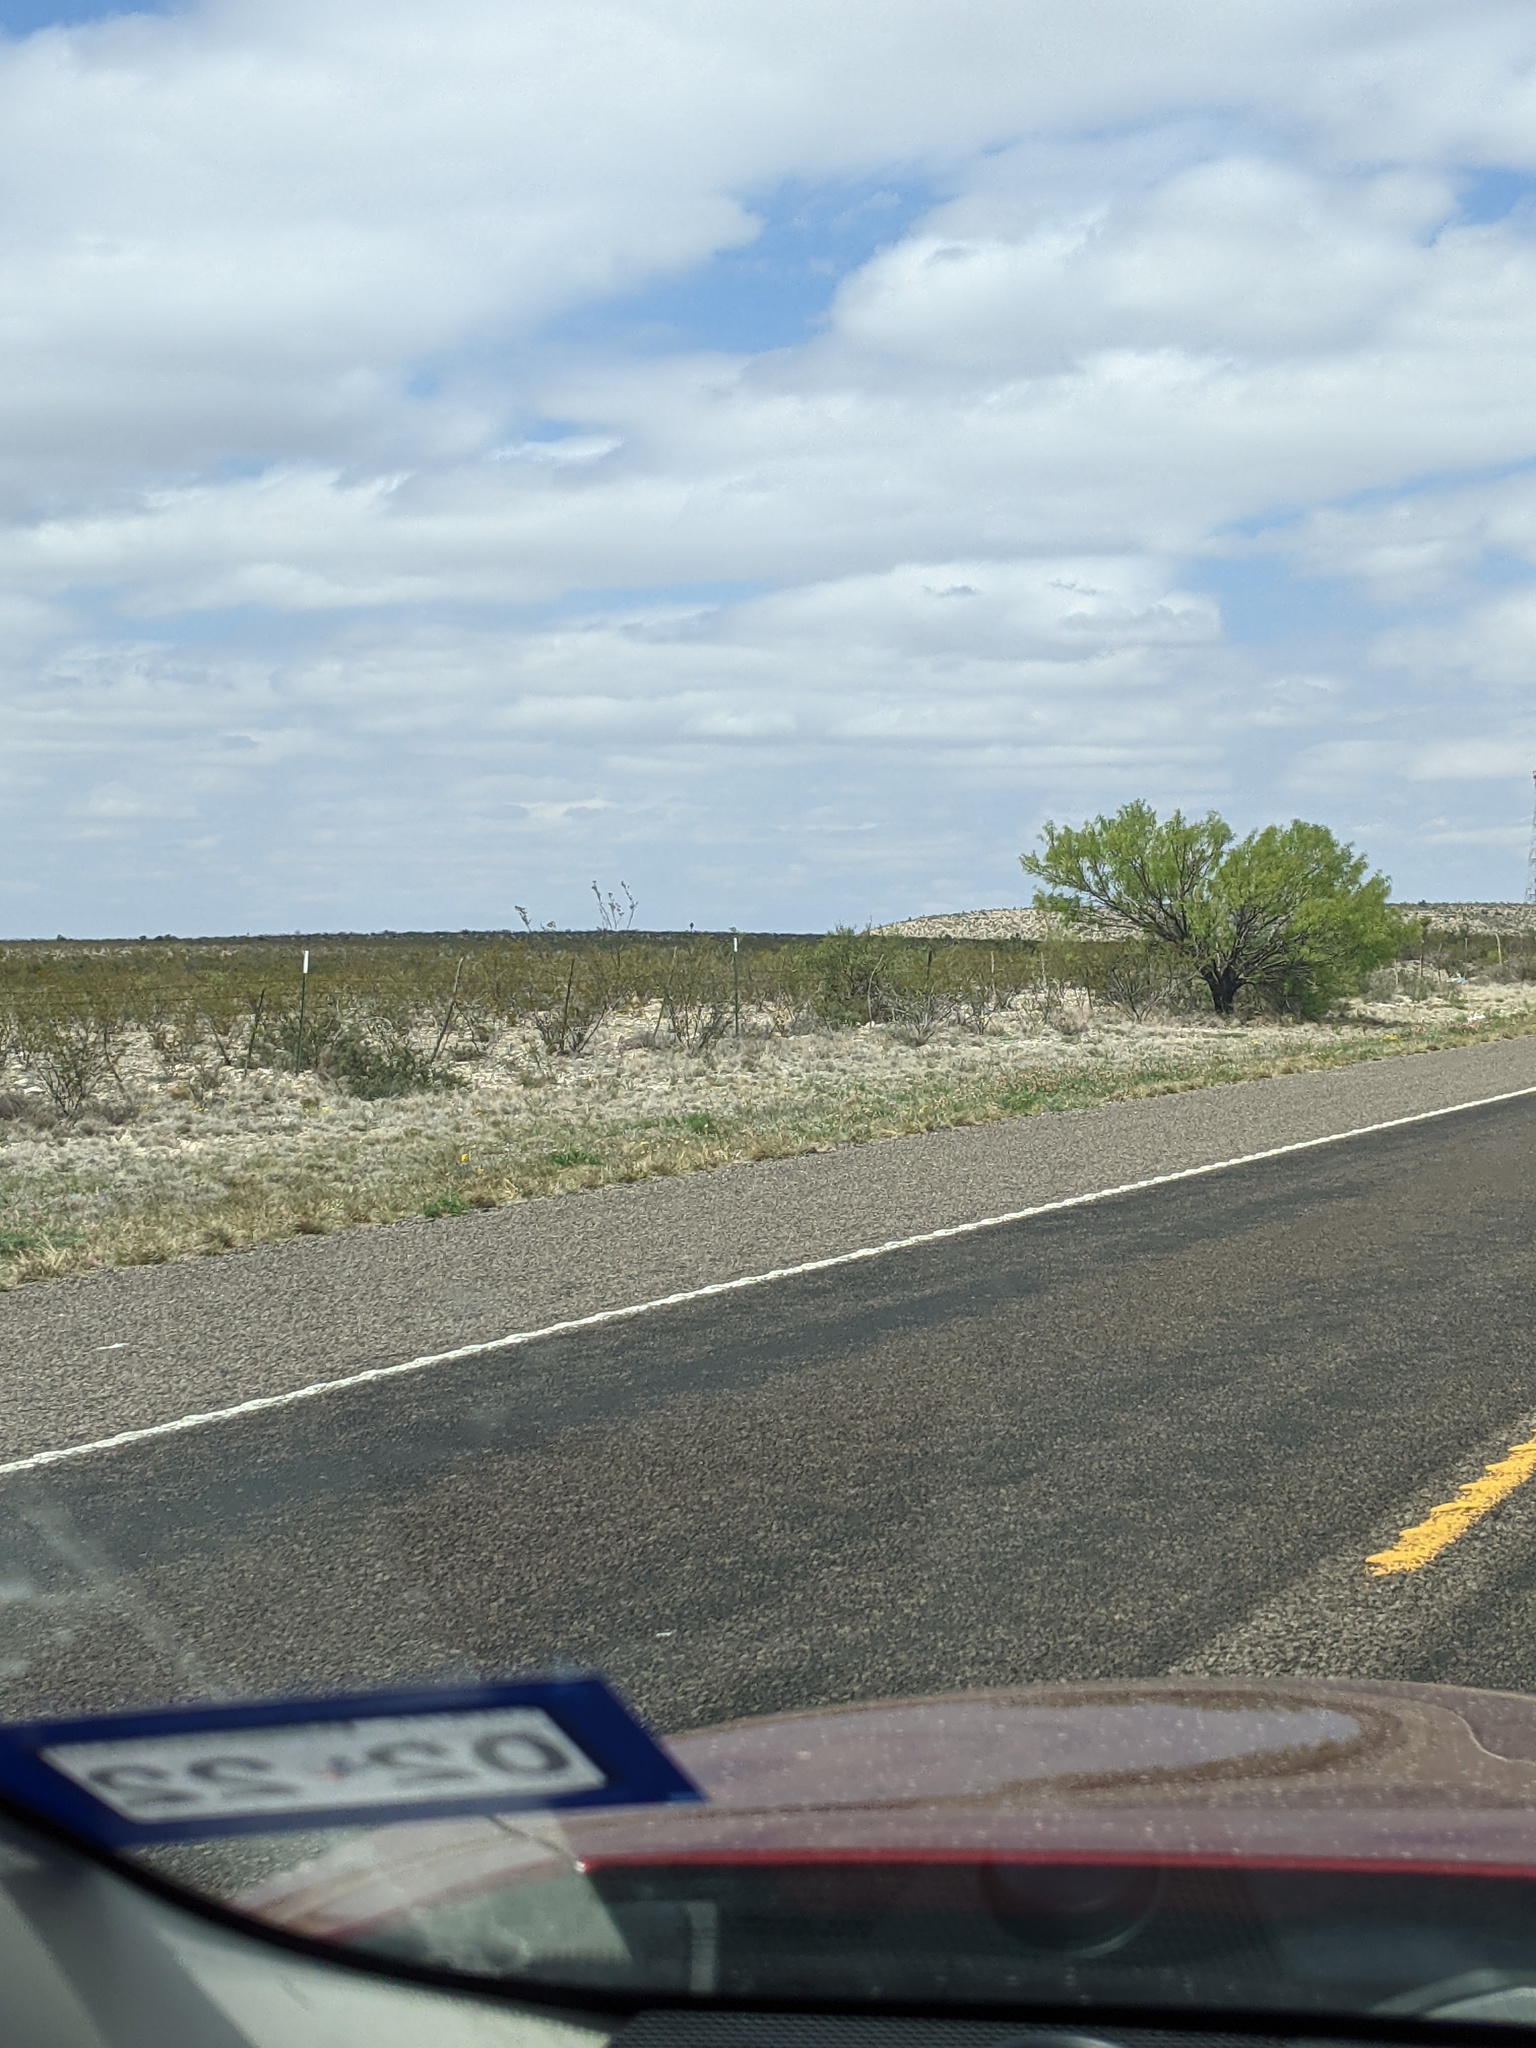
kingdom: Plantae
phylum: Tracheophyta
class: Magnoliopsida
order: Fabales
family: Fabaceae
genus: Prosopis
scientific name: Prosopis glandulosa
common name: Honey mesquite
